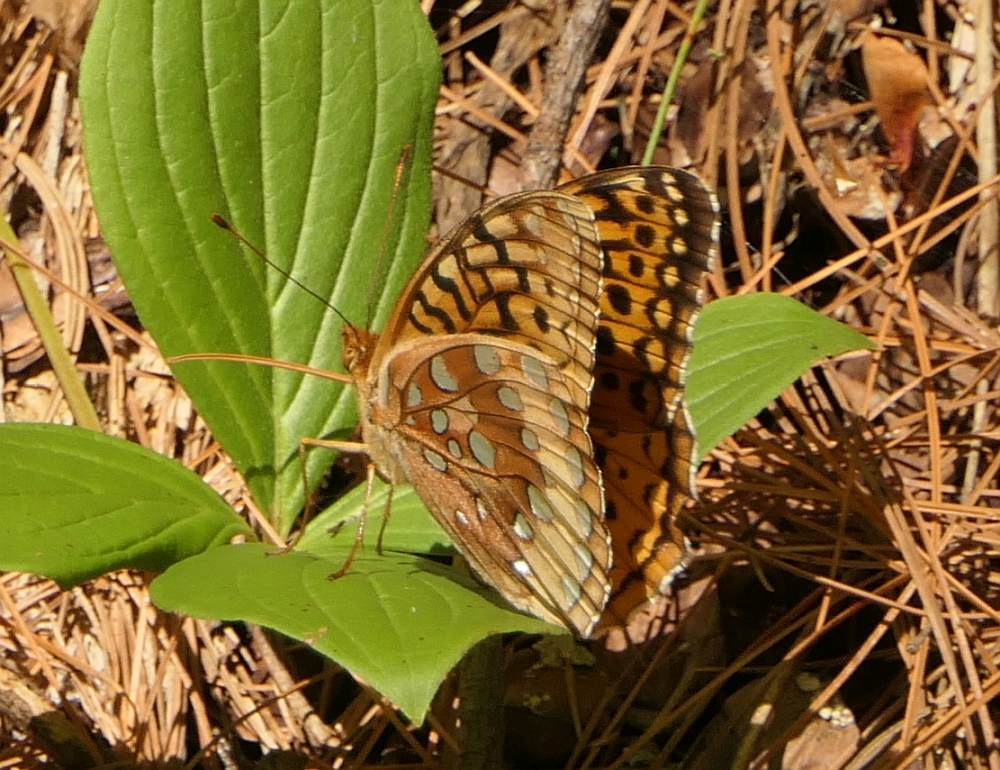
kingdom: Animalia
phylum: Arthropoda
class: Insecta
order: Lepidoptera
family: Nymphalidae
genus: Speyeria
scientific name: Speyeria cybele
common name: Great spangled fritillary
